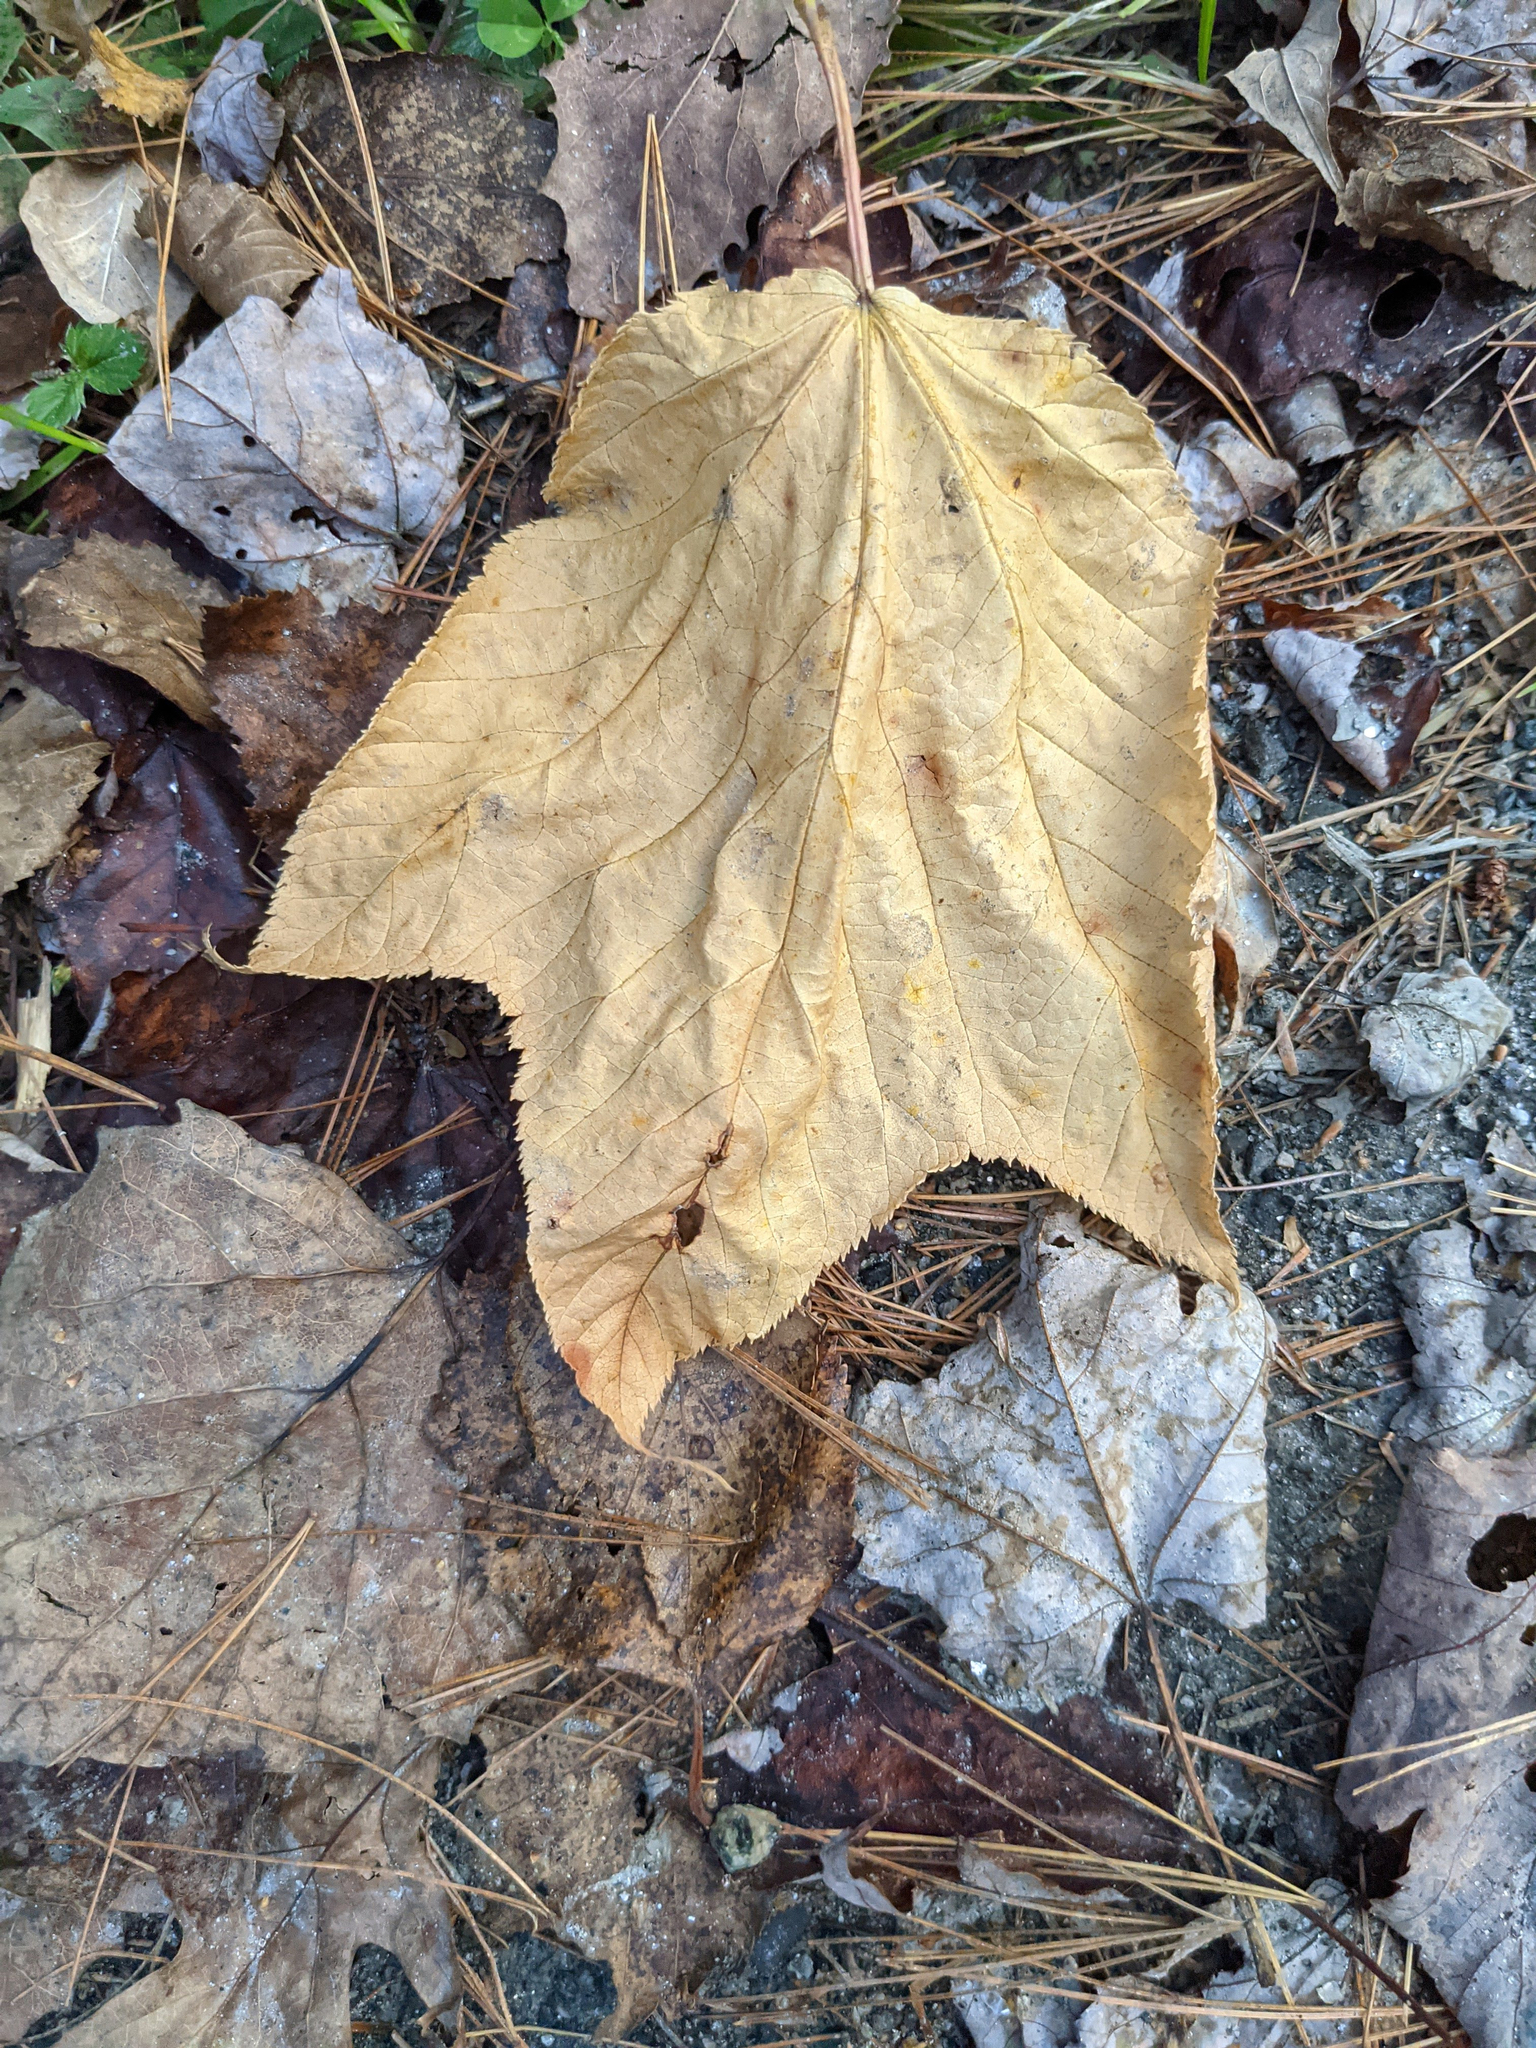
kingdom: Plantae
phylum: Tracheophyta
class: Magnoliopsida
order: Sapindales
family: Sapindaceae
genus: Acer
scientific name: Acer pensylvanicum
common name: Moosewood
